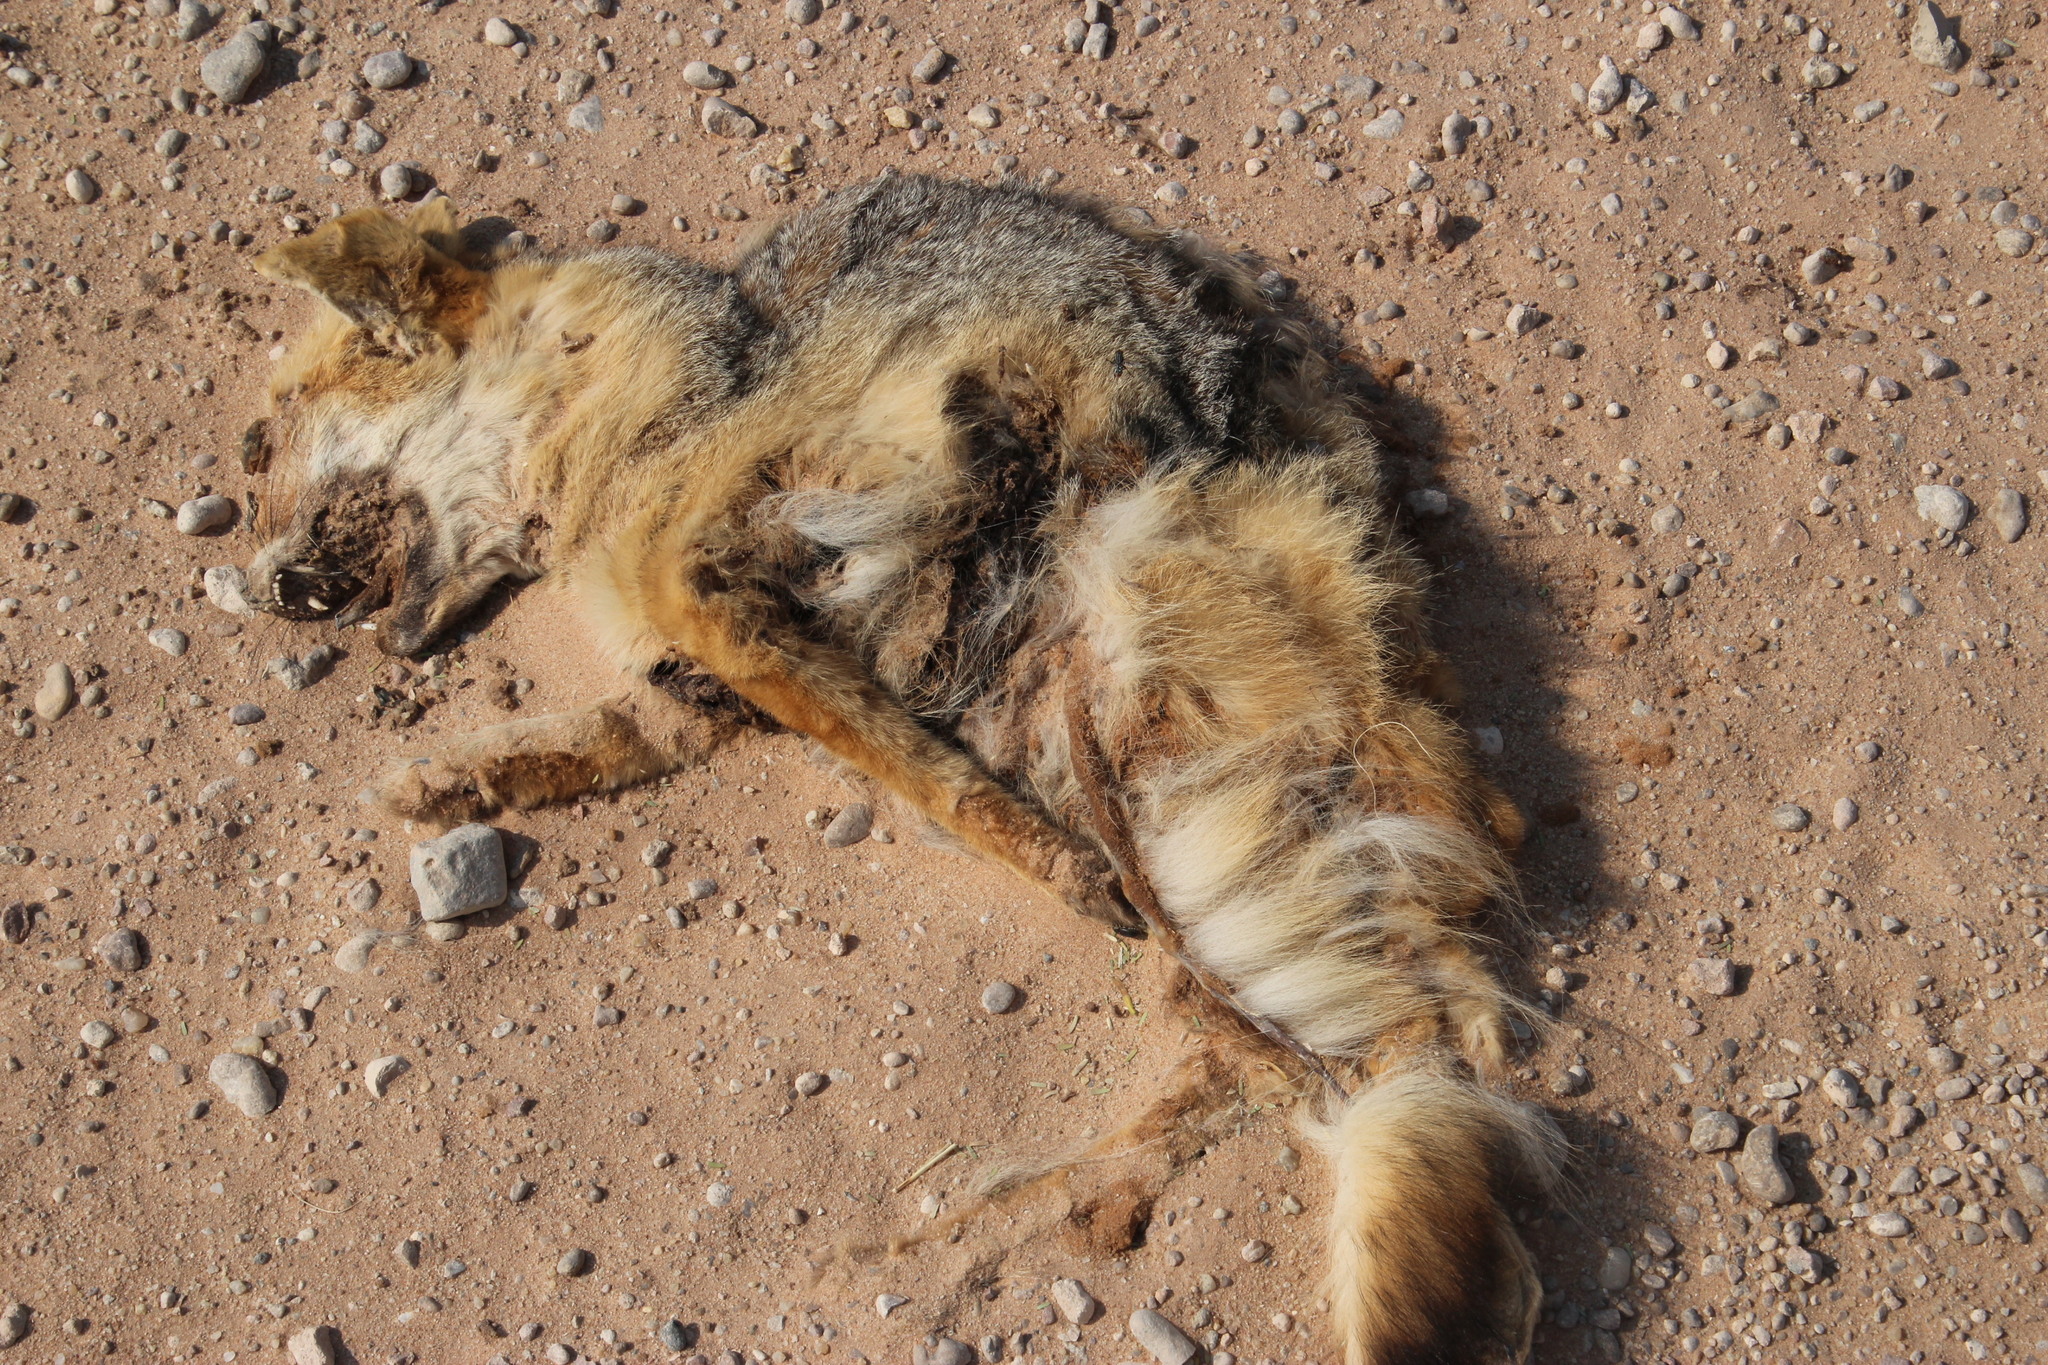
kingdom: Animalia
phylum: Chordata
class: Mammalia
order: Carnivora
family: Canidae
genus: Vulpes
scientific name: Vulpes chama
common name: Cape fox
